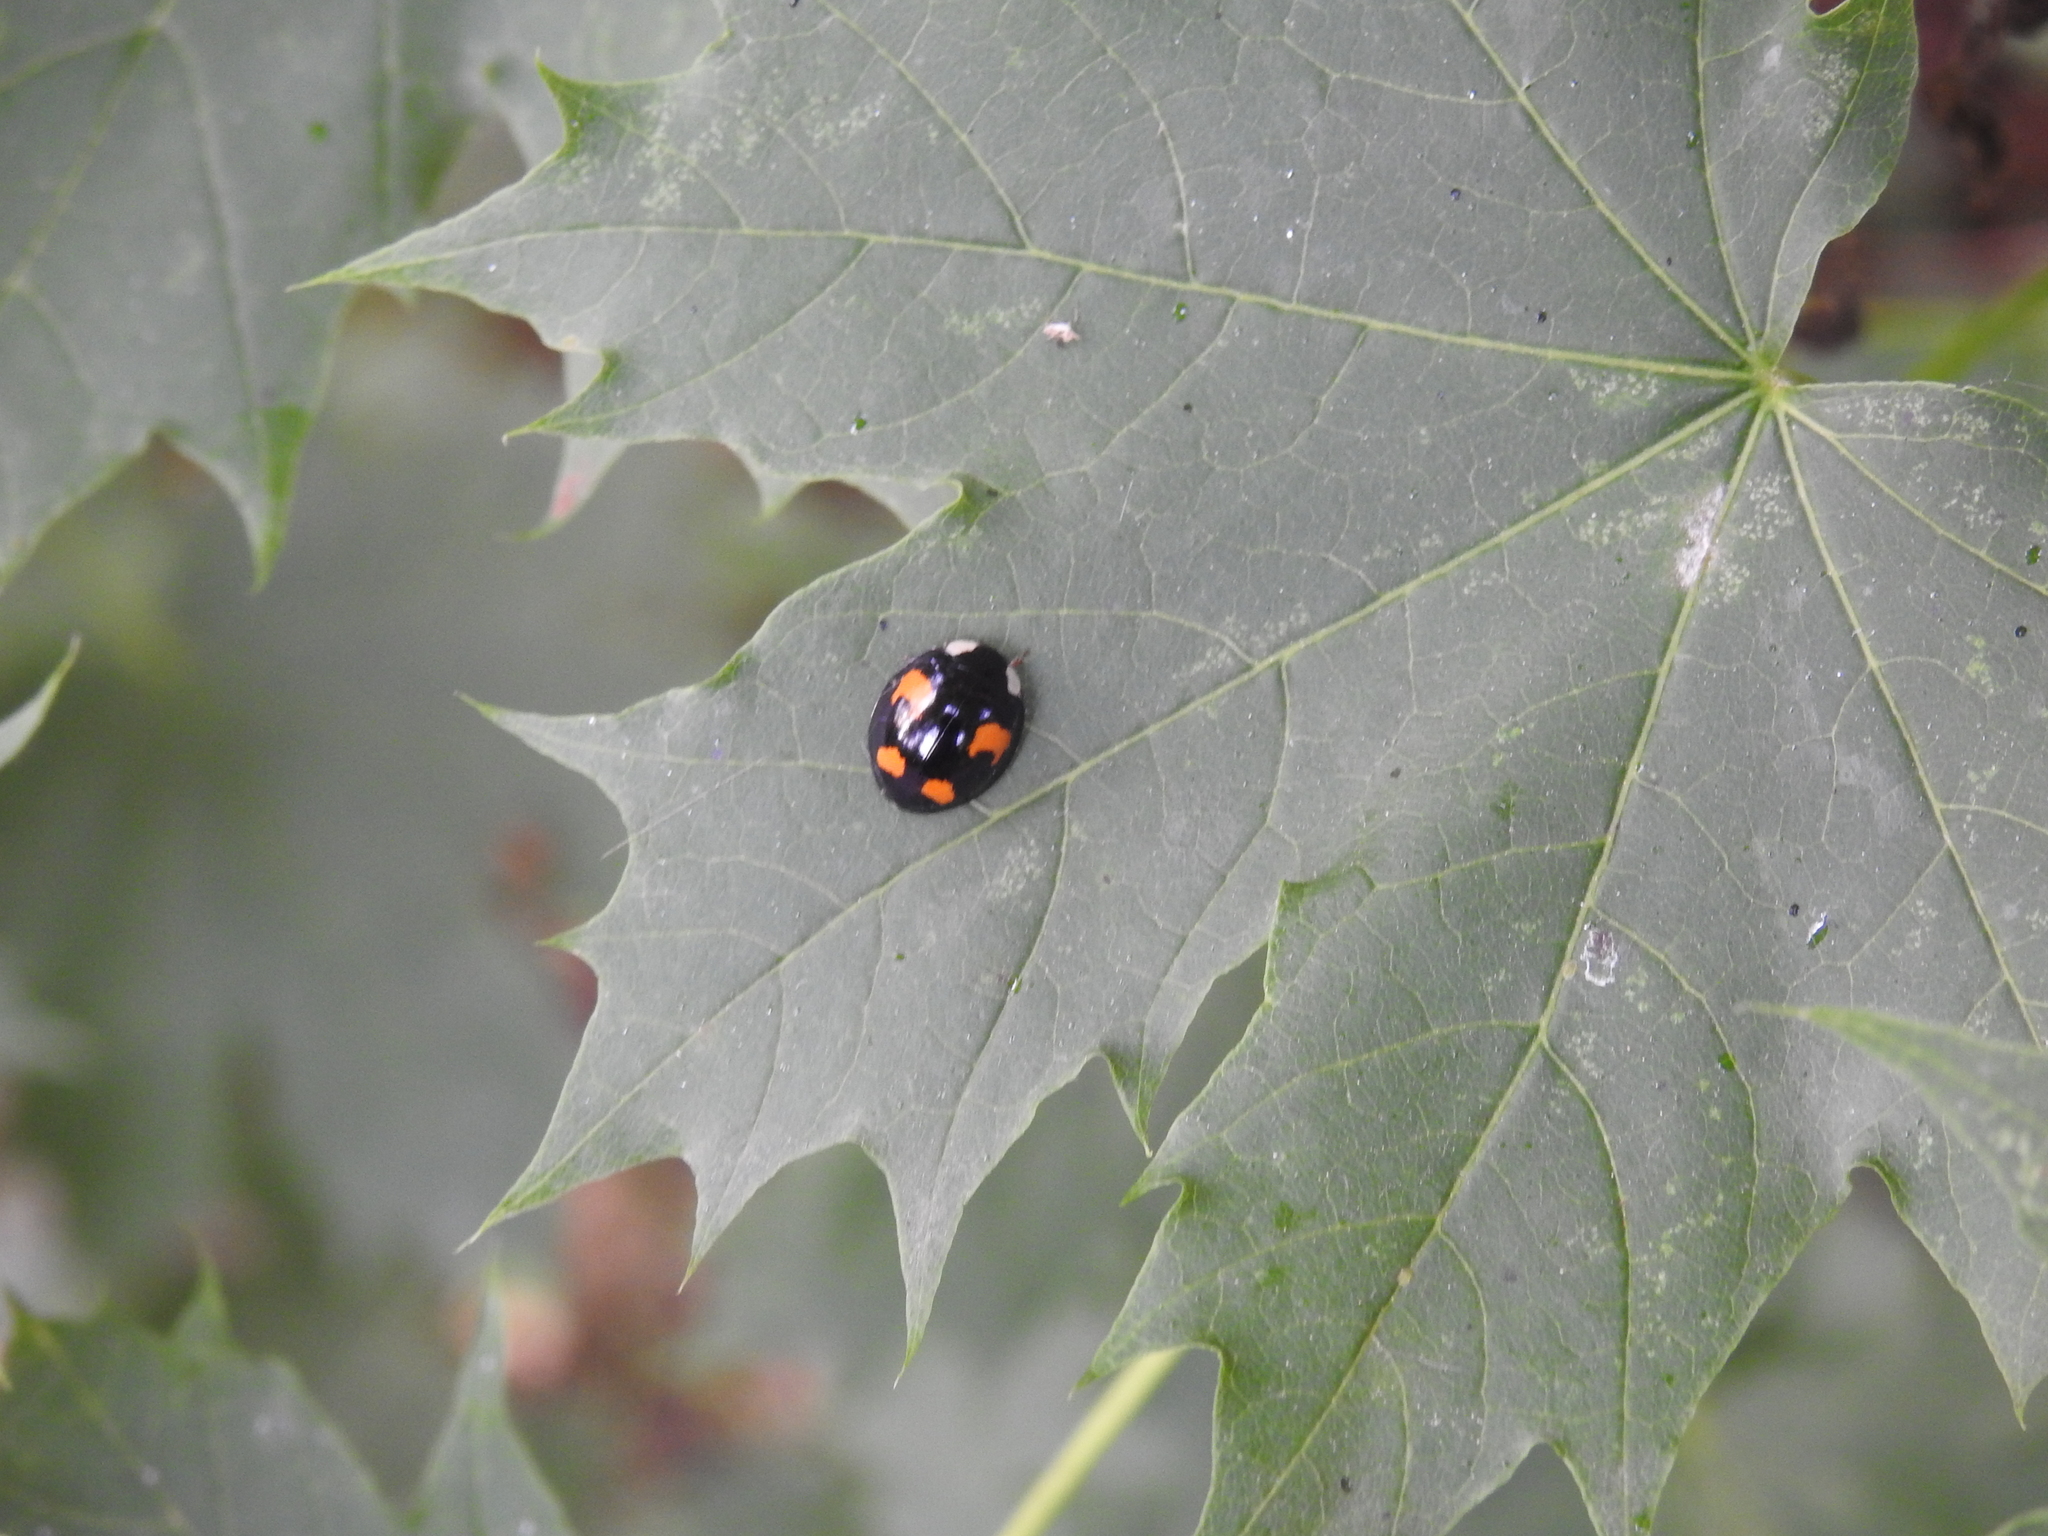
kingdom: Animalia
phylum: Arthropoda
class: Insecta
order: Coleoptera
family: Coccinellidae
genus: Harmonia
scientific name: Harmonia axyridis
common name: Harlequin ladybird
